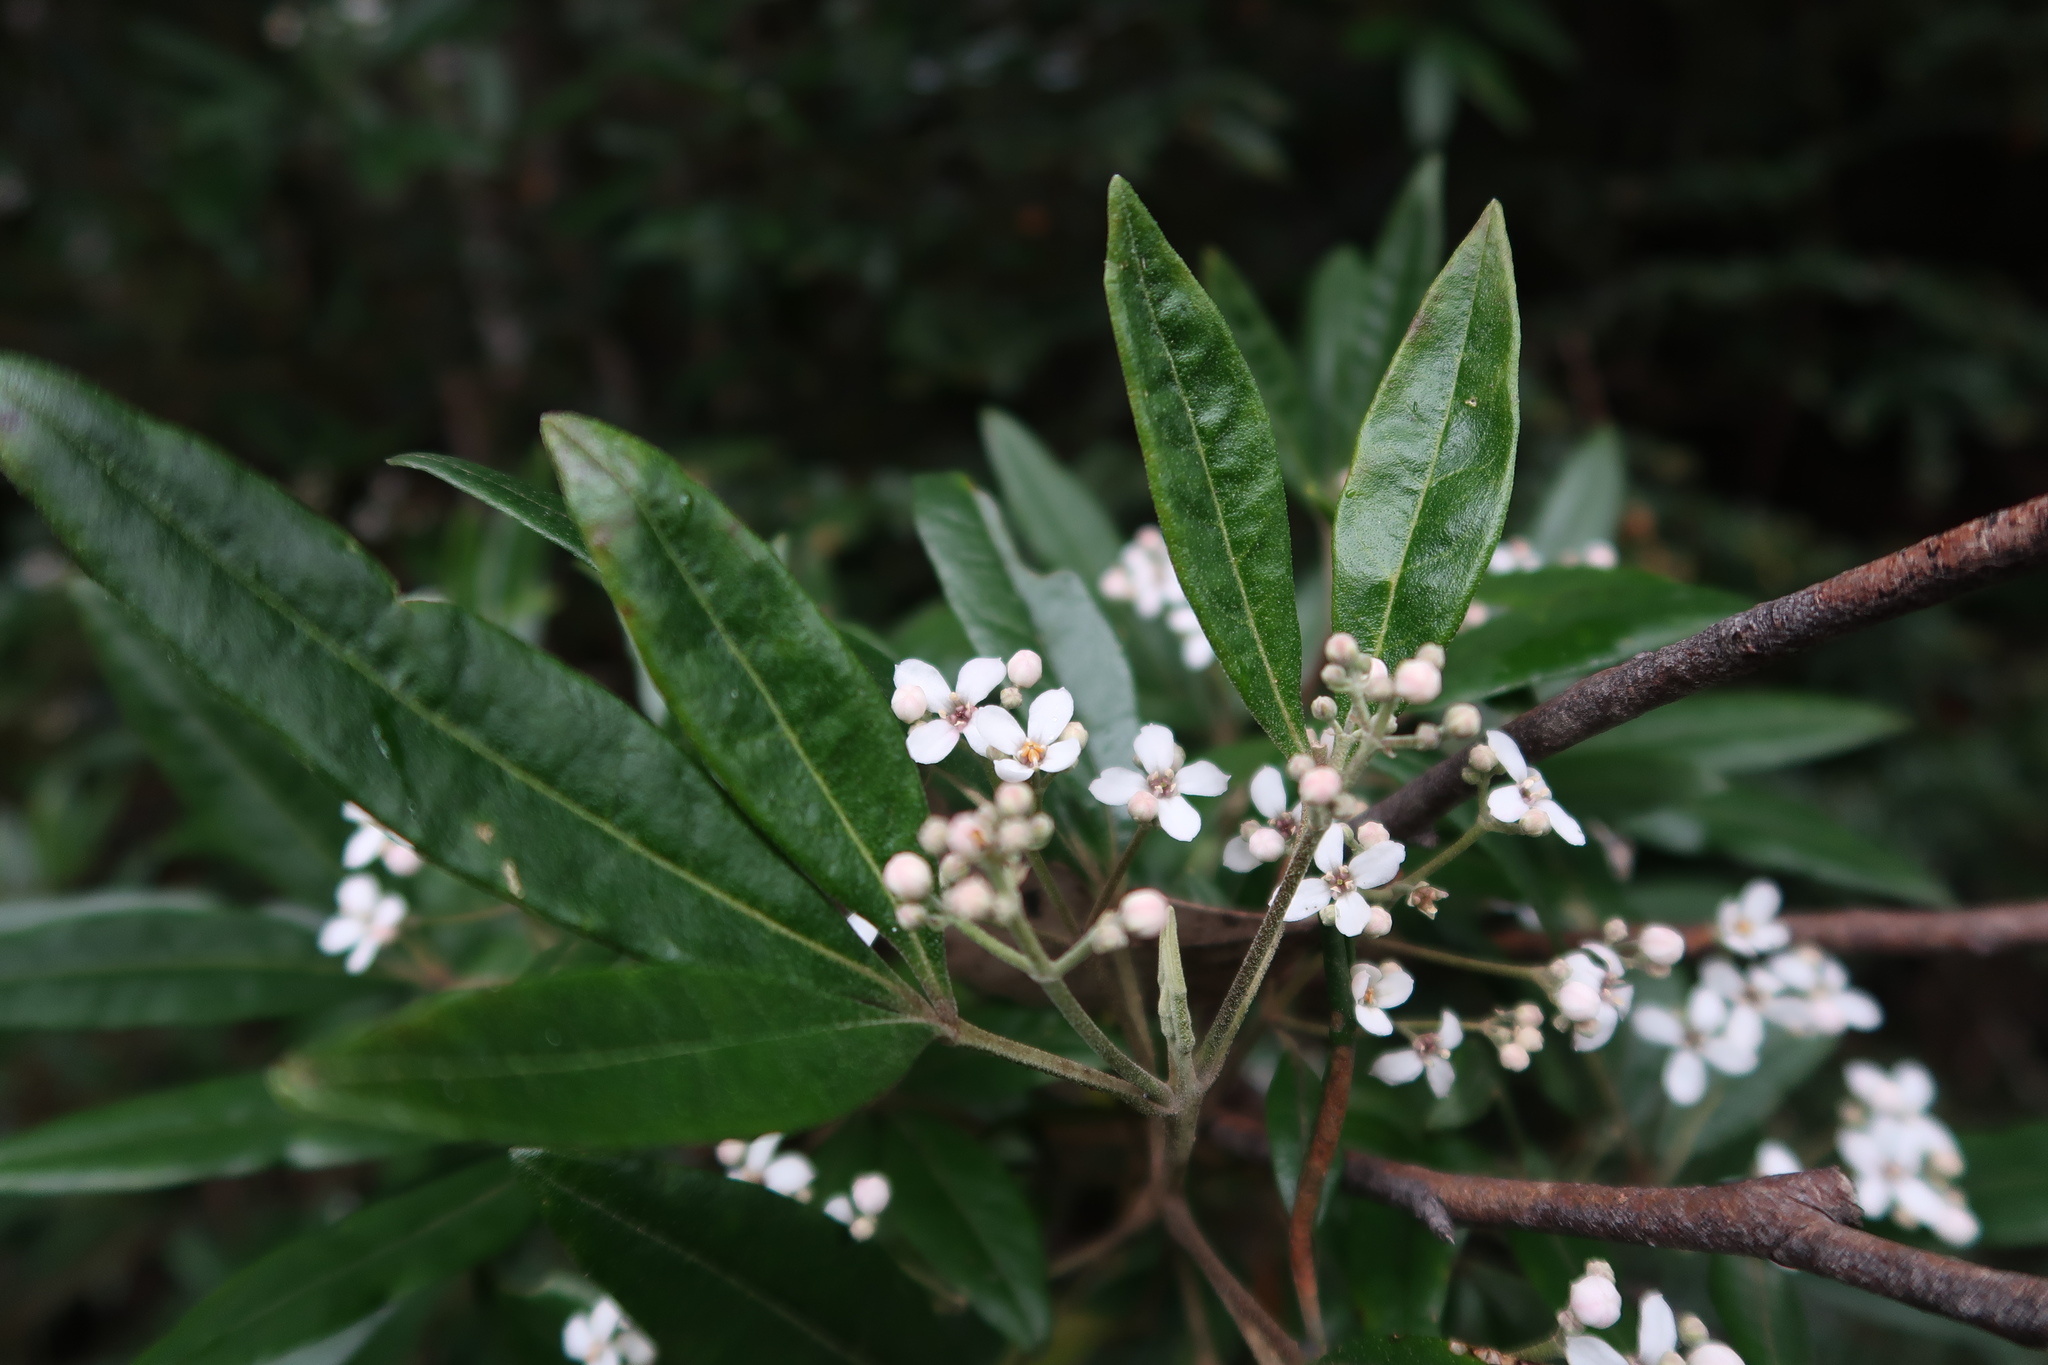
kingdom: Plantae
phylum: Tracheophyta
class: Magnoliopsida
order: Sapindales
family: Rutaceae
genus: Zieria
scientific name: Zieria arborescens
